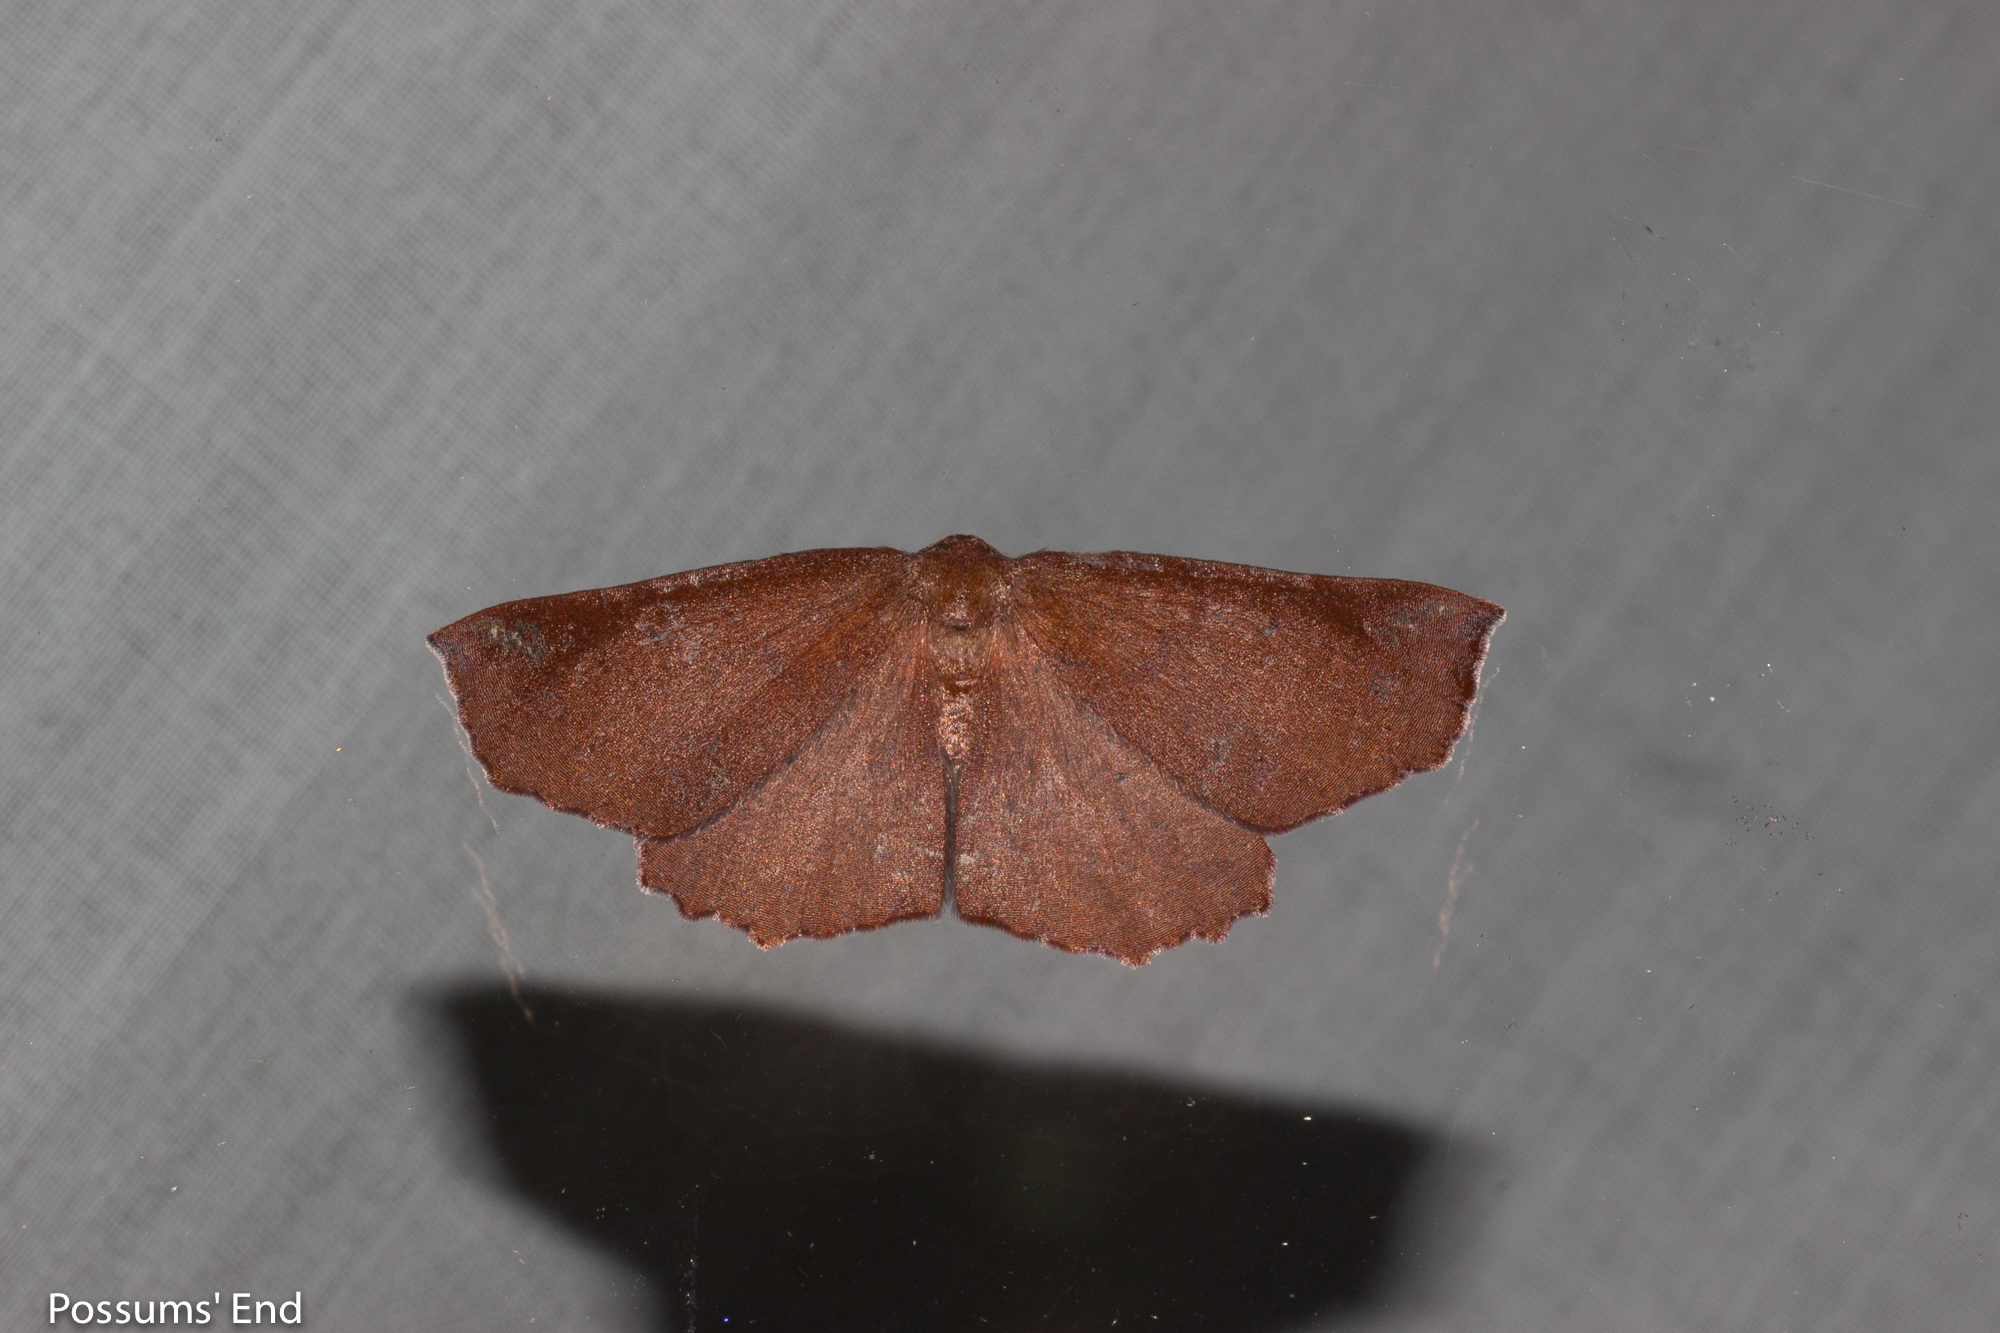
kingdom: Animalia
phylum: Arthropoda
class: Insecta
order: Lepidoptera
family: Geometridae
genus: Xyridacma
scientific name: Xyridacma ustaria
